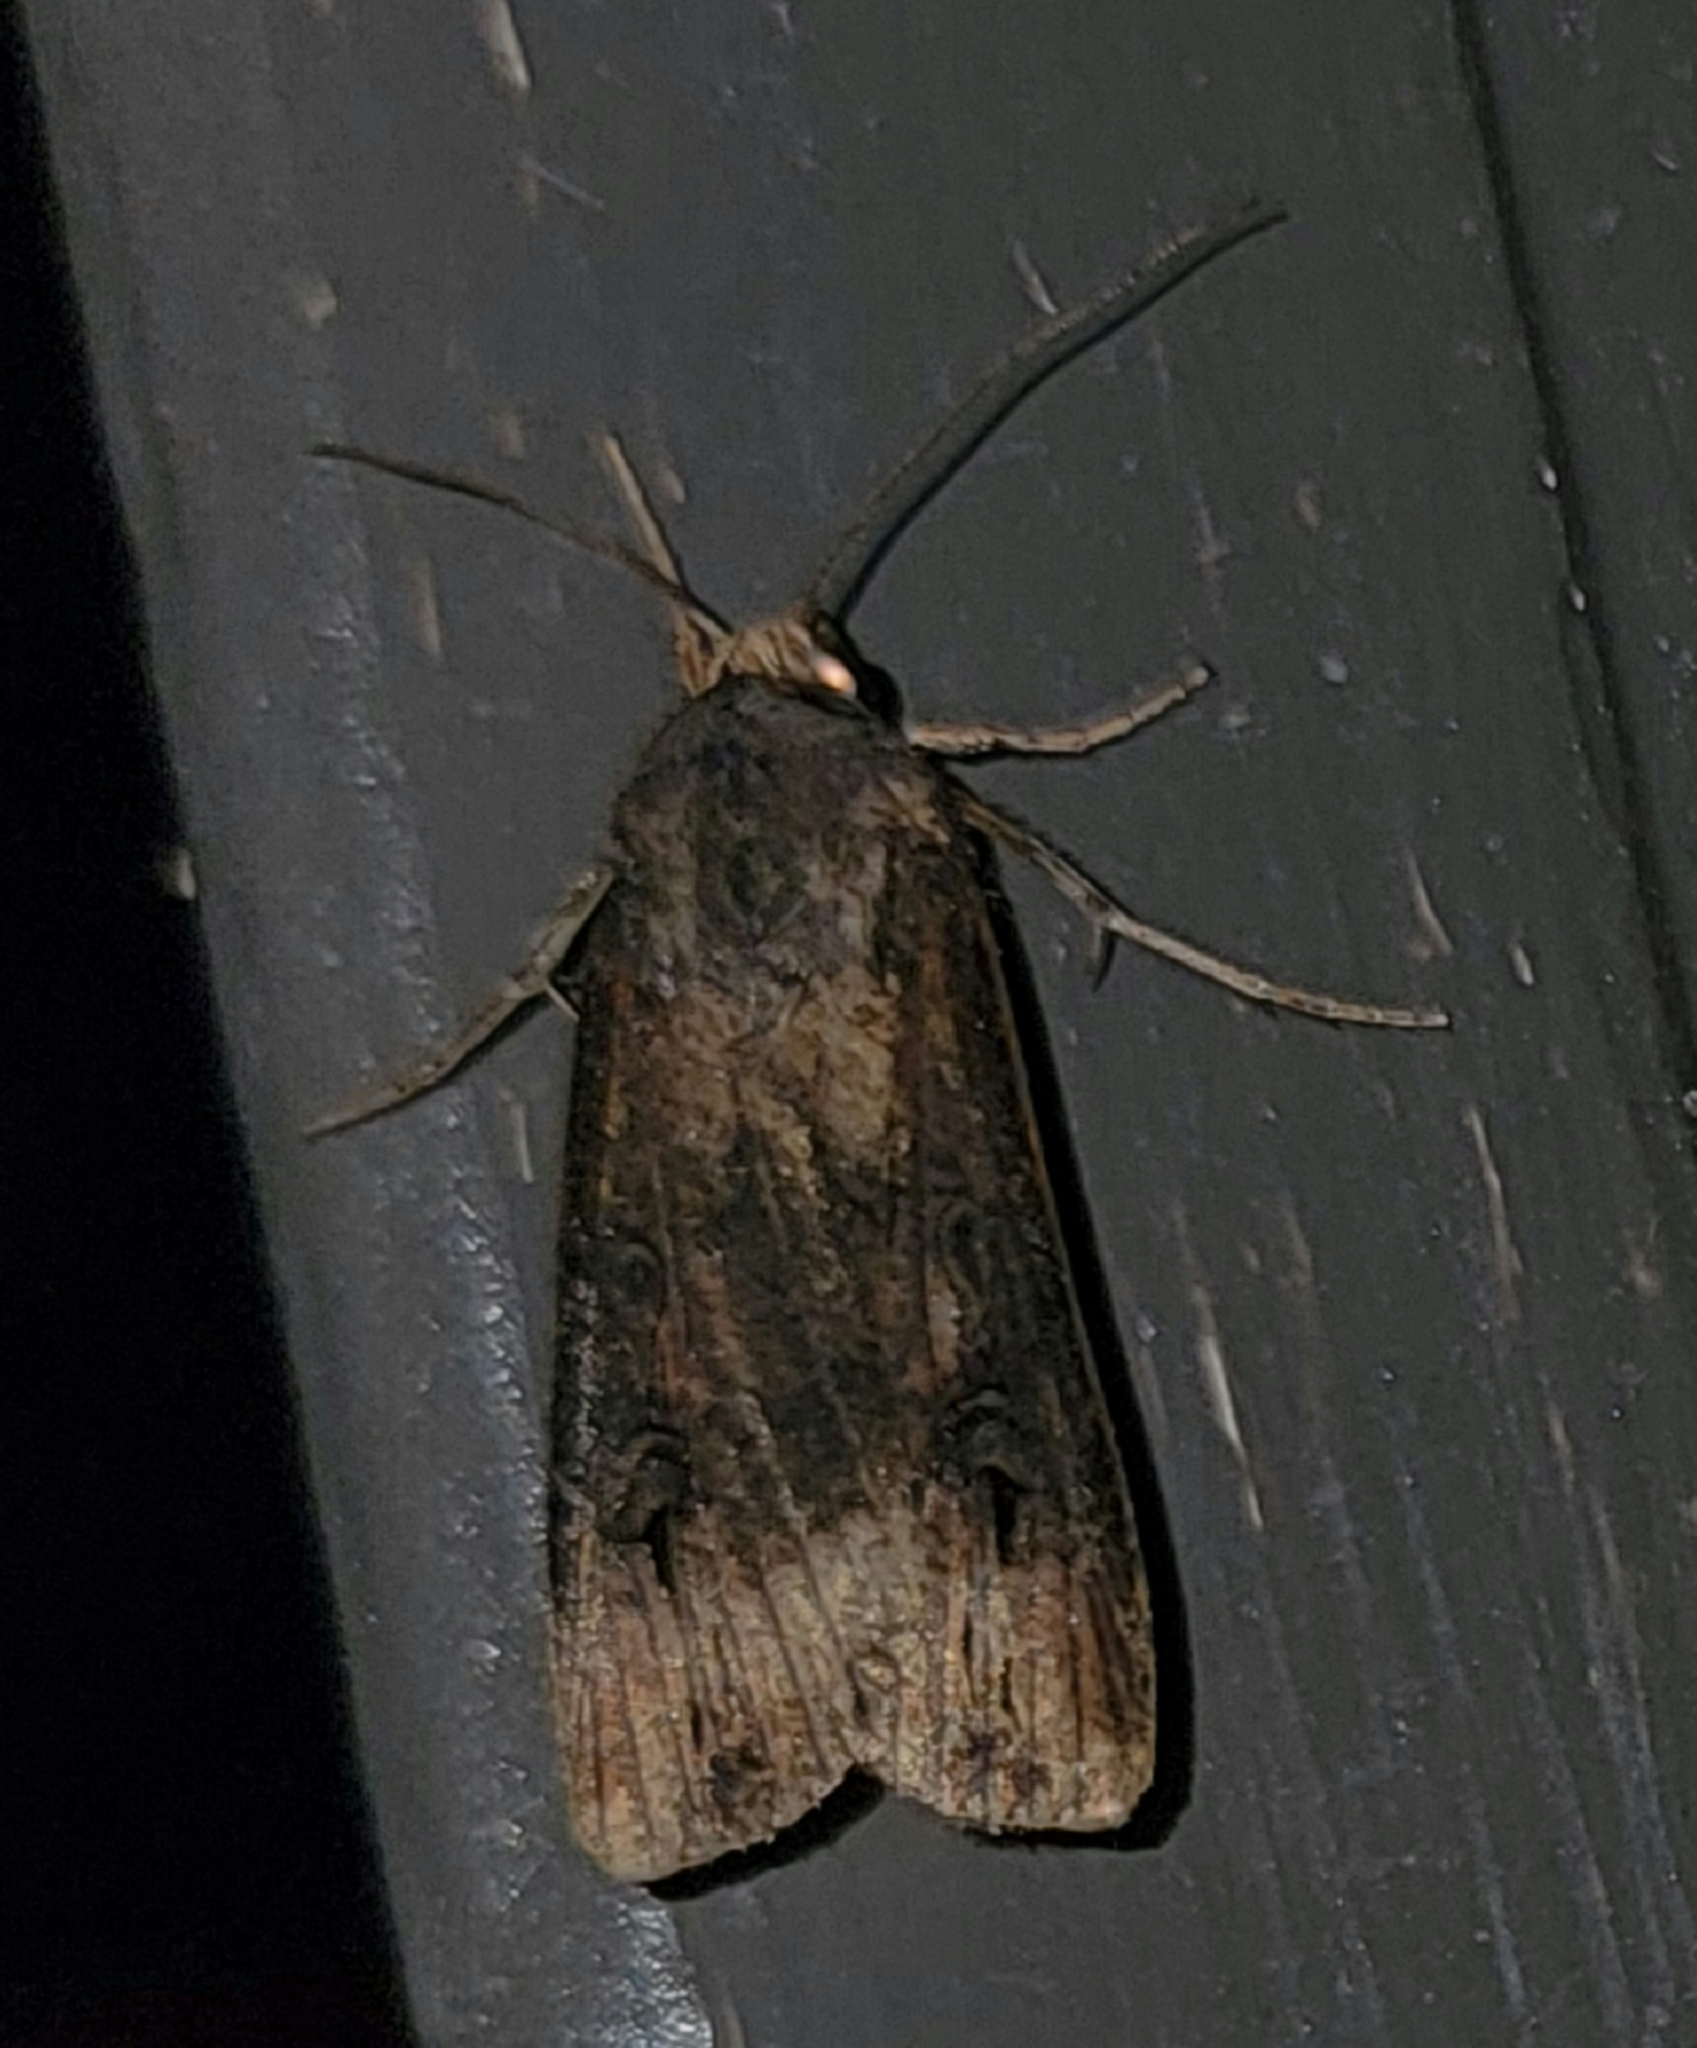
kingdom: Animalia
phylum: Arthropoda
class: Insecta
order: Lepidoptera
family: Noctuidae
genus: Agrotis
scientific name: Agrotis ipsilon
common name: Dark sword-grass
